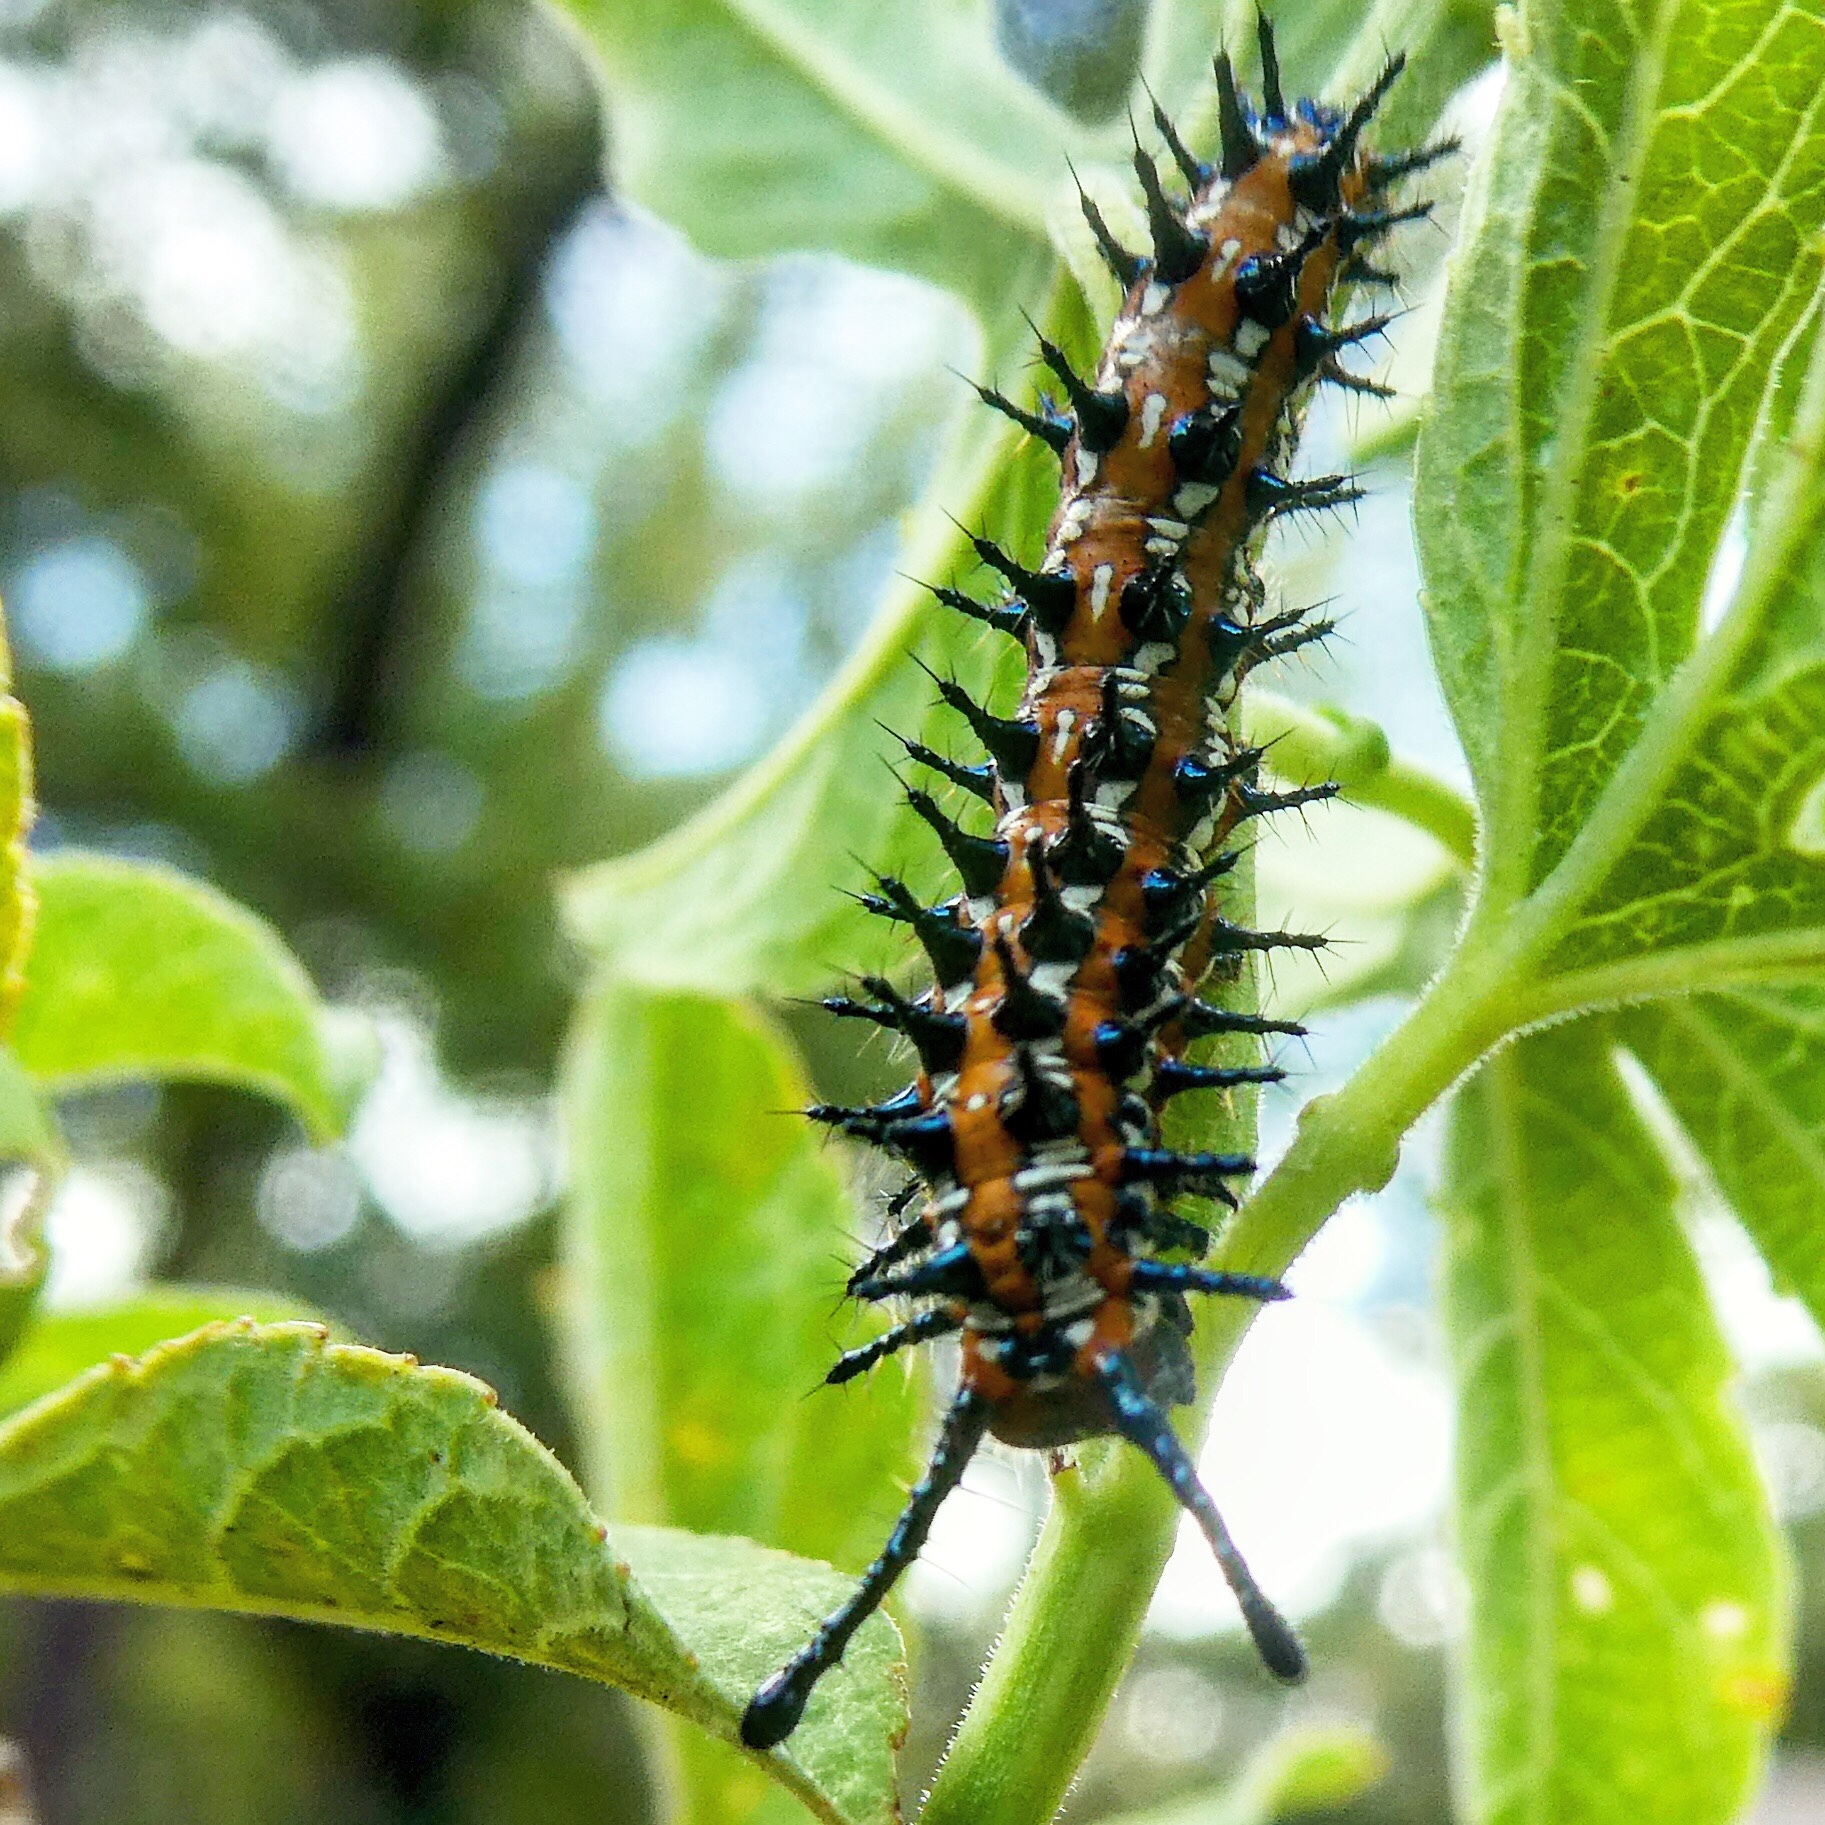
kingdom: Animalia
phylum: Arthropoda
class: Insecta
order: Lepidoptera
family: Nymphalidae
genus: Euptoieta
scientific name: Euptoieta claudia
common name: Variegated fritillary
